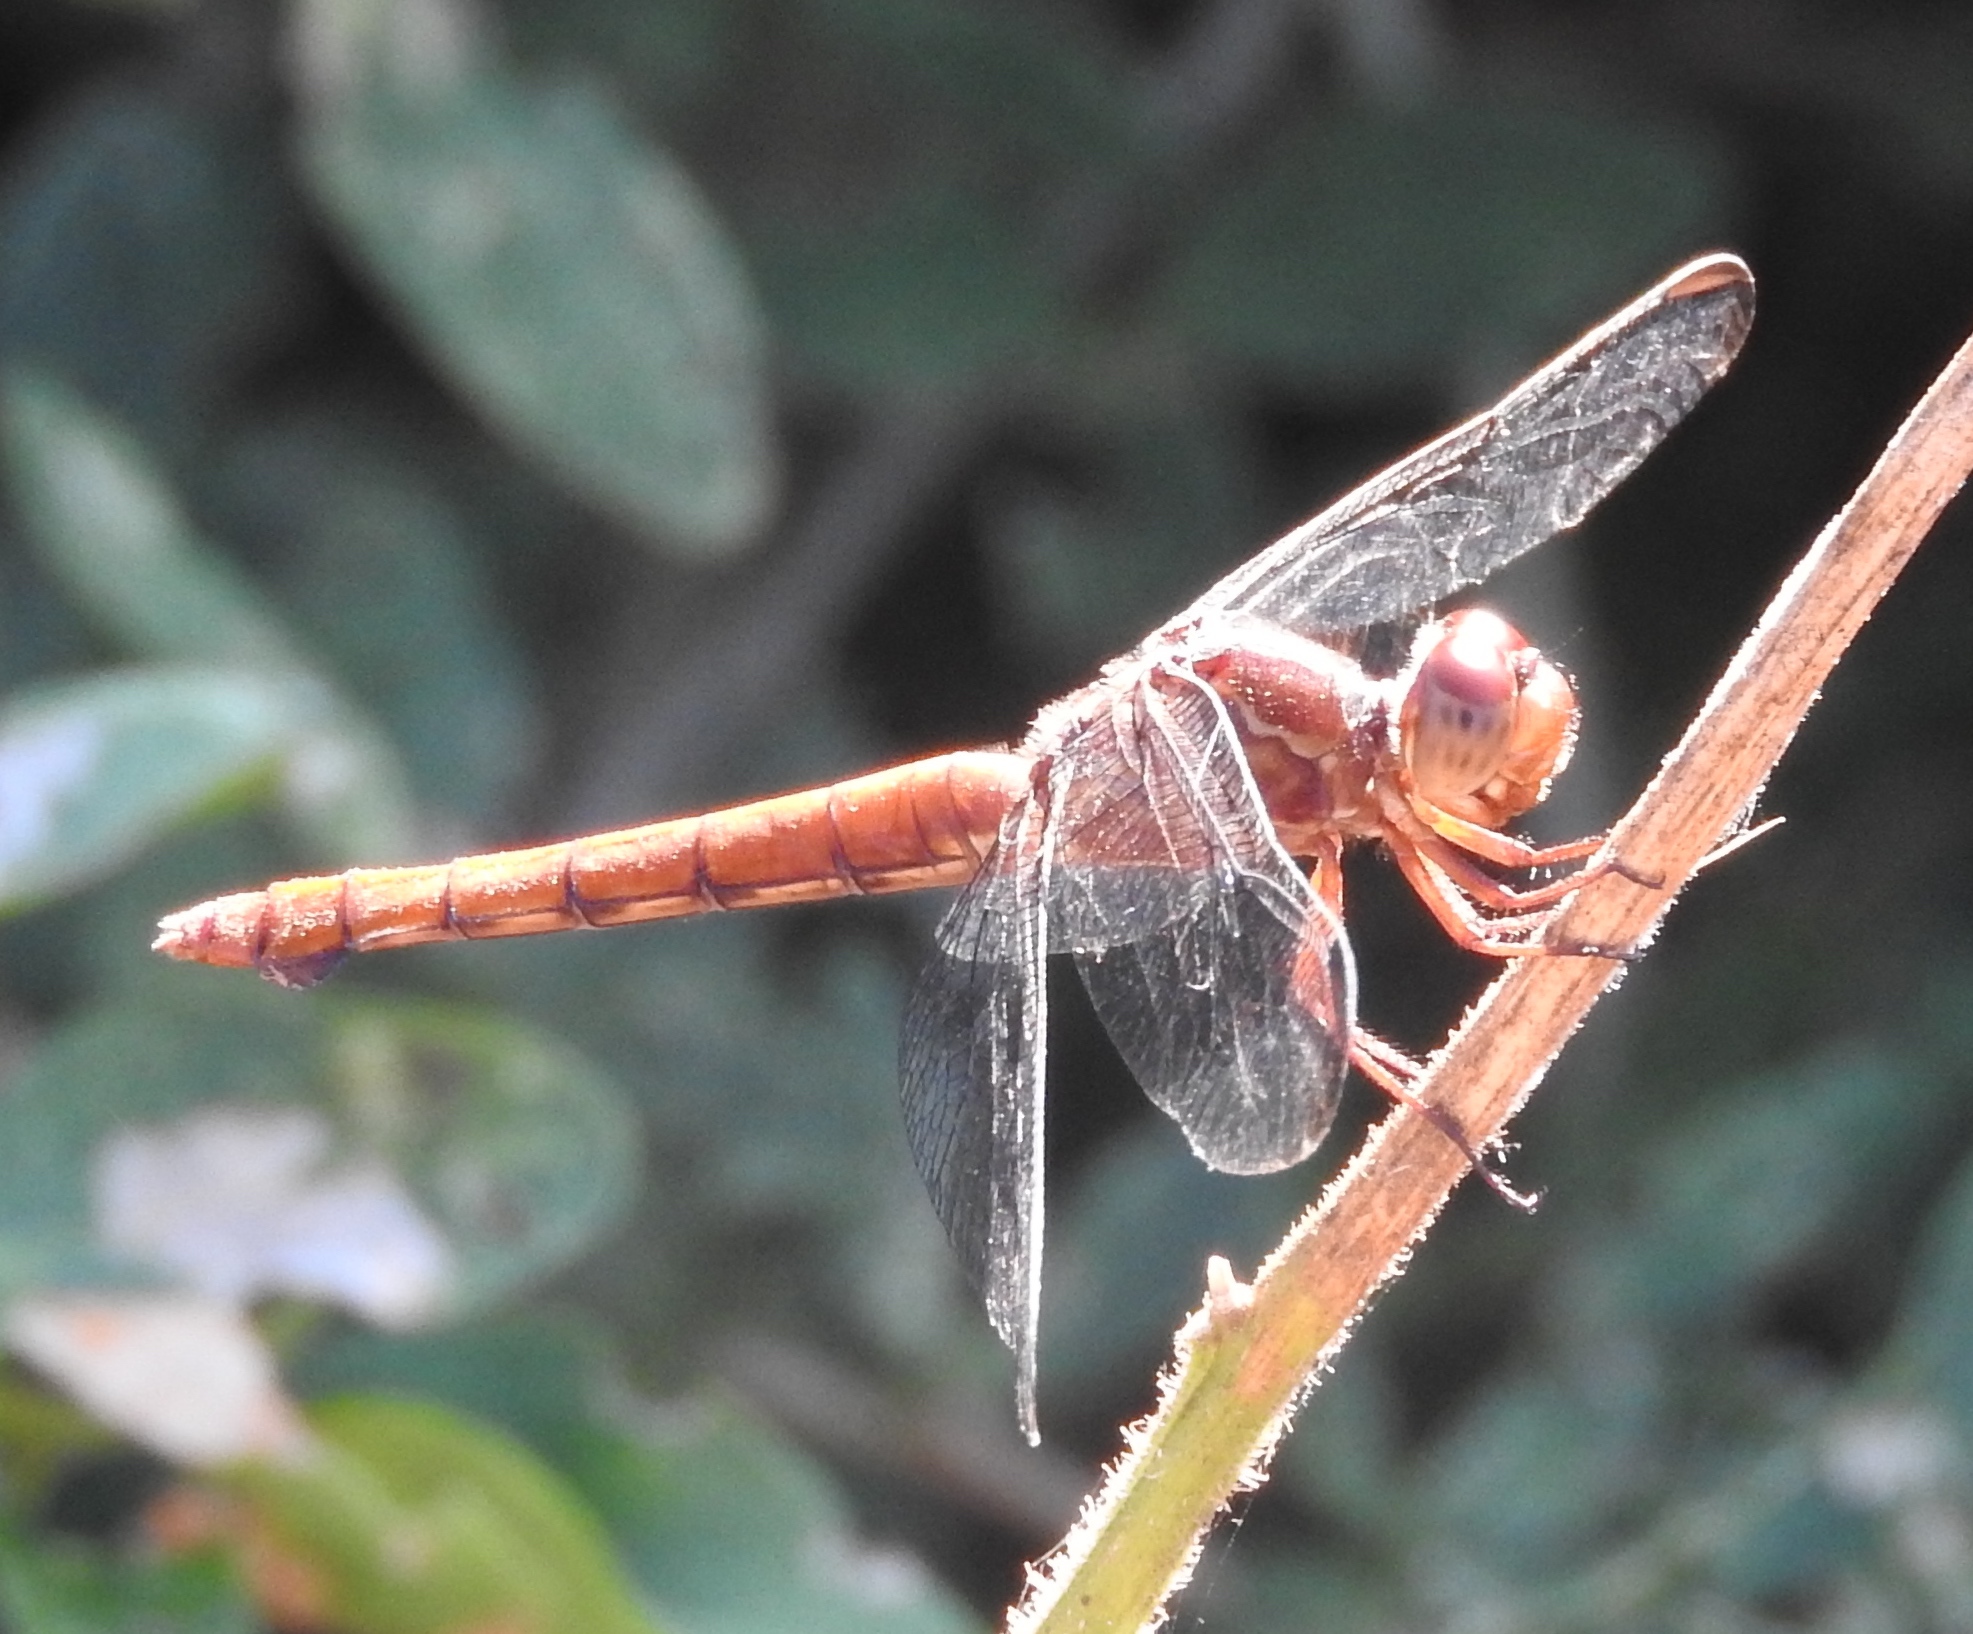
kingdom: Animalia
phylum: Arthropoda
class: Insecta
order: Odonata
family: Libellulidae
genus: Orthemis
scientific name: Orthemis discolor
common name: Carmine skimmer
